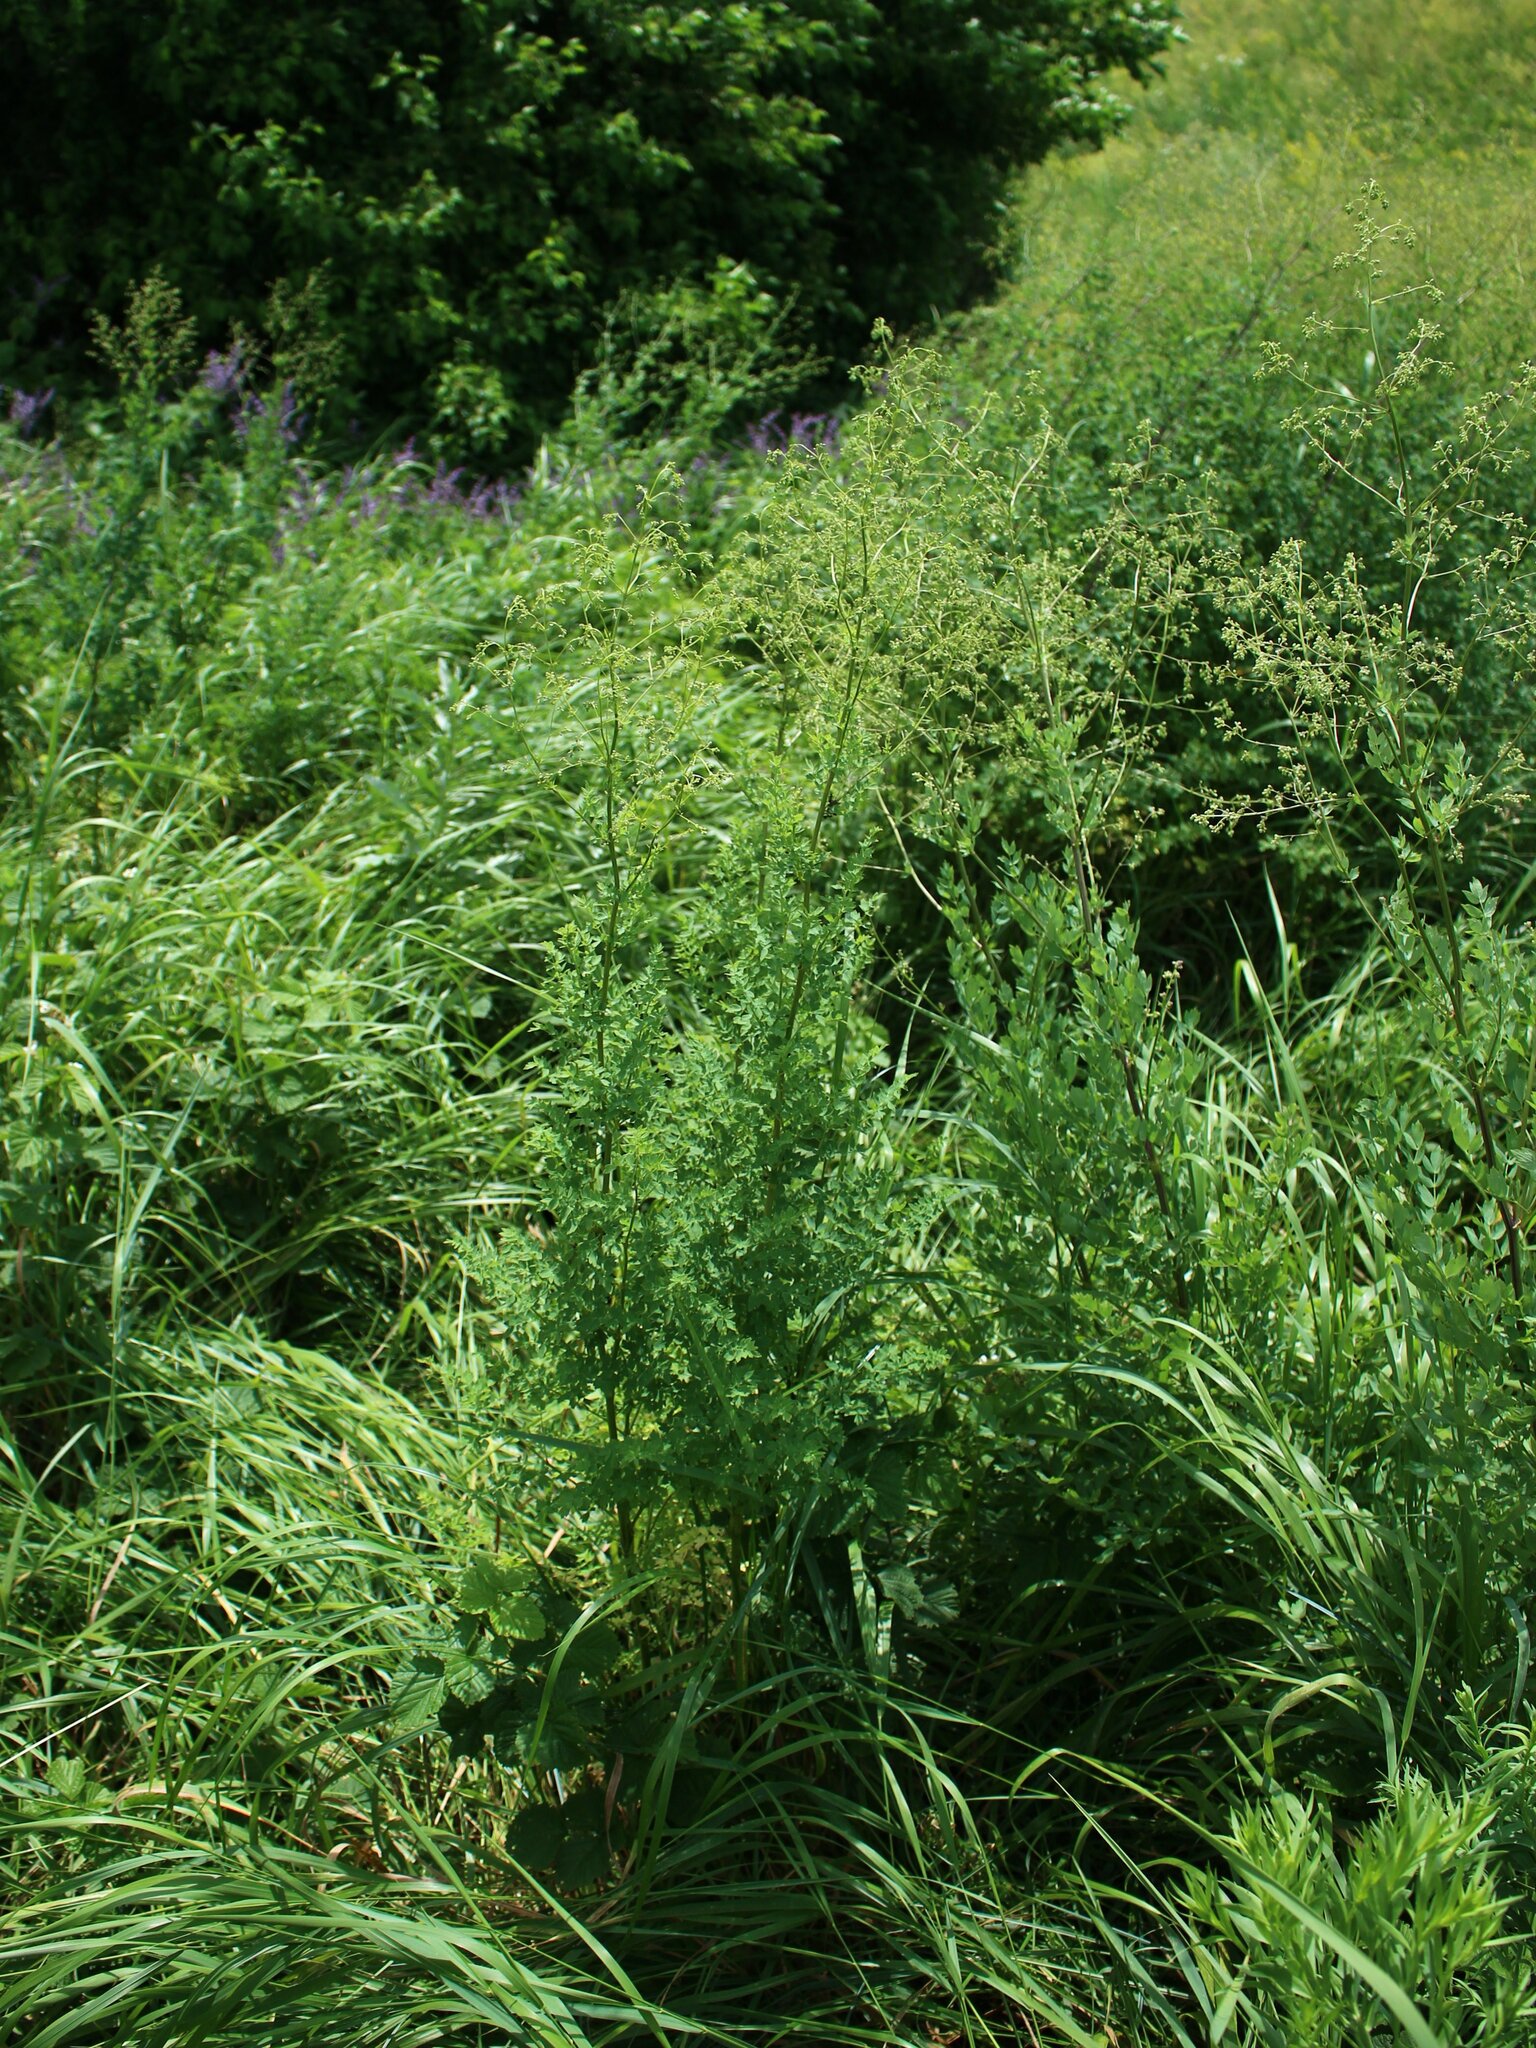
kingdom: Plantae
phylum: Tracheophyta
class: Magnoliopsida
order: Ranunculales
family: Ranunculaceae
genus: Thalictrum
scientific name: Thalictrum minus
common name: Lesser meadow-rue
